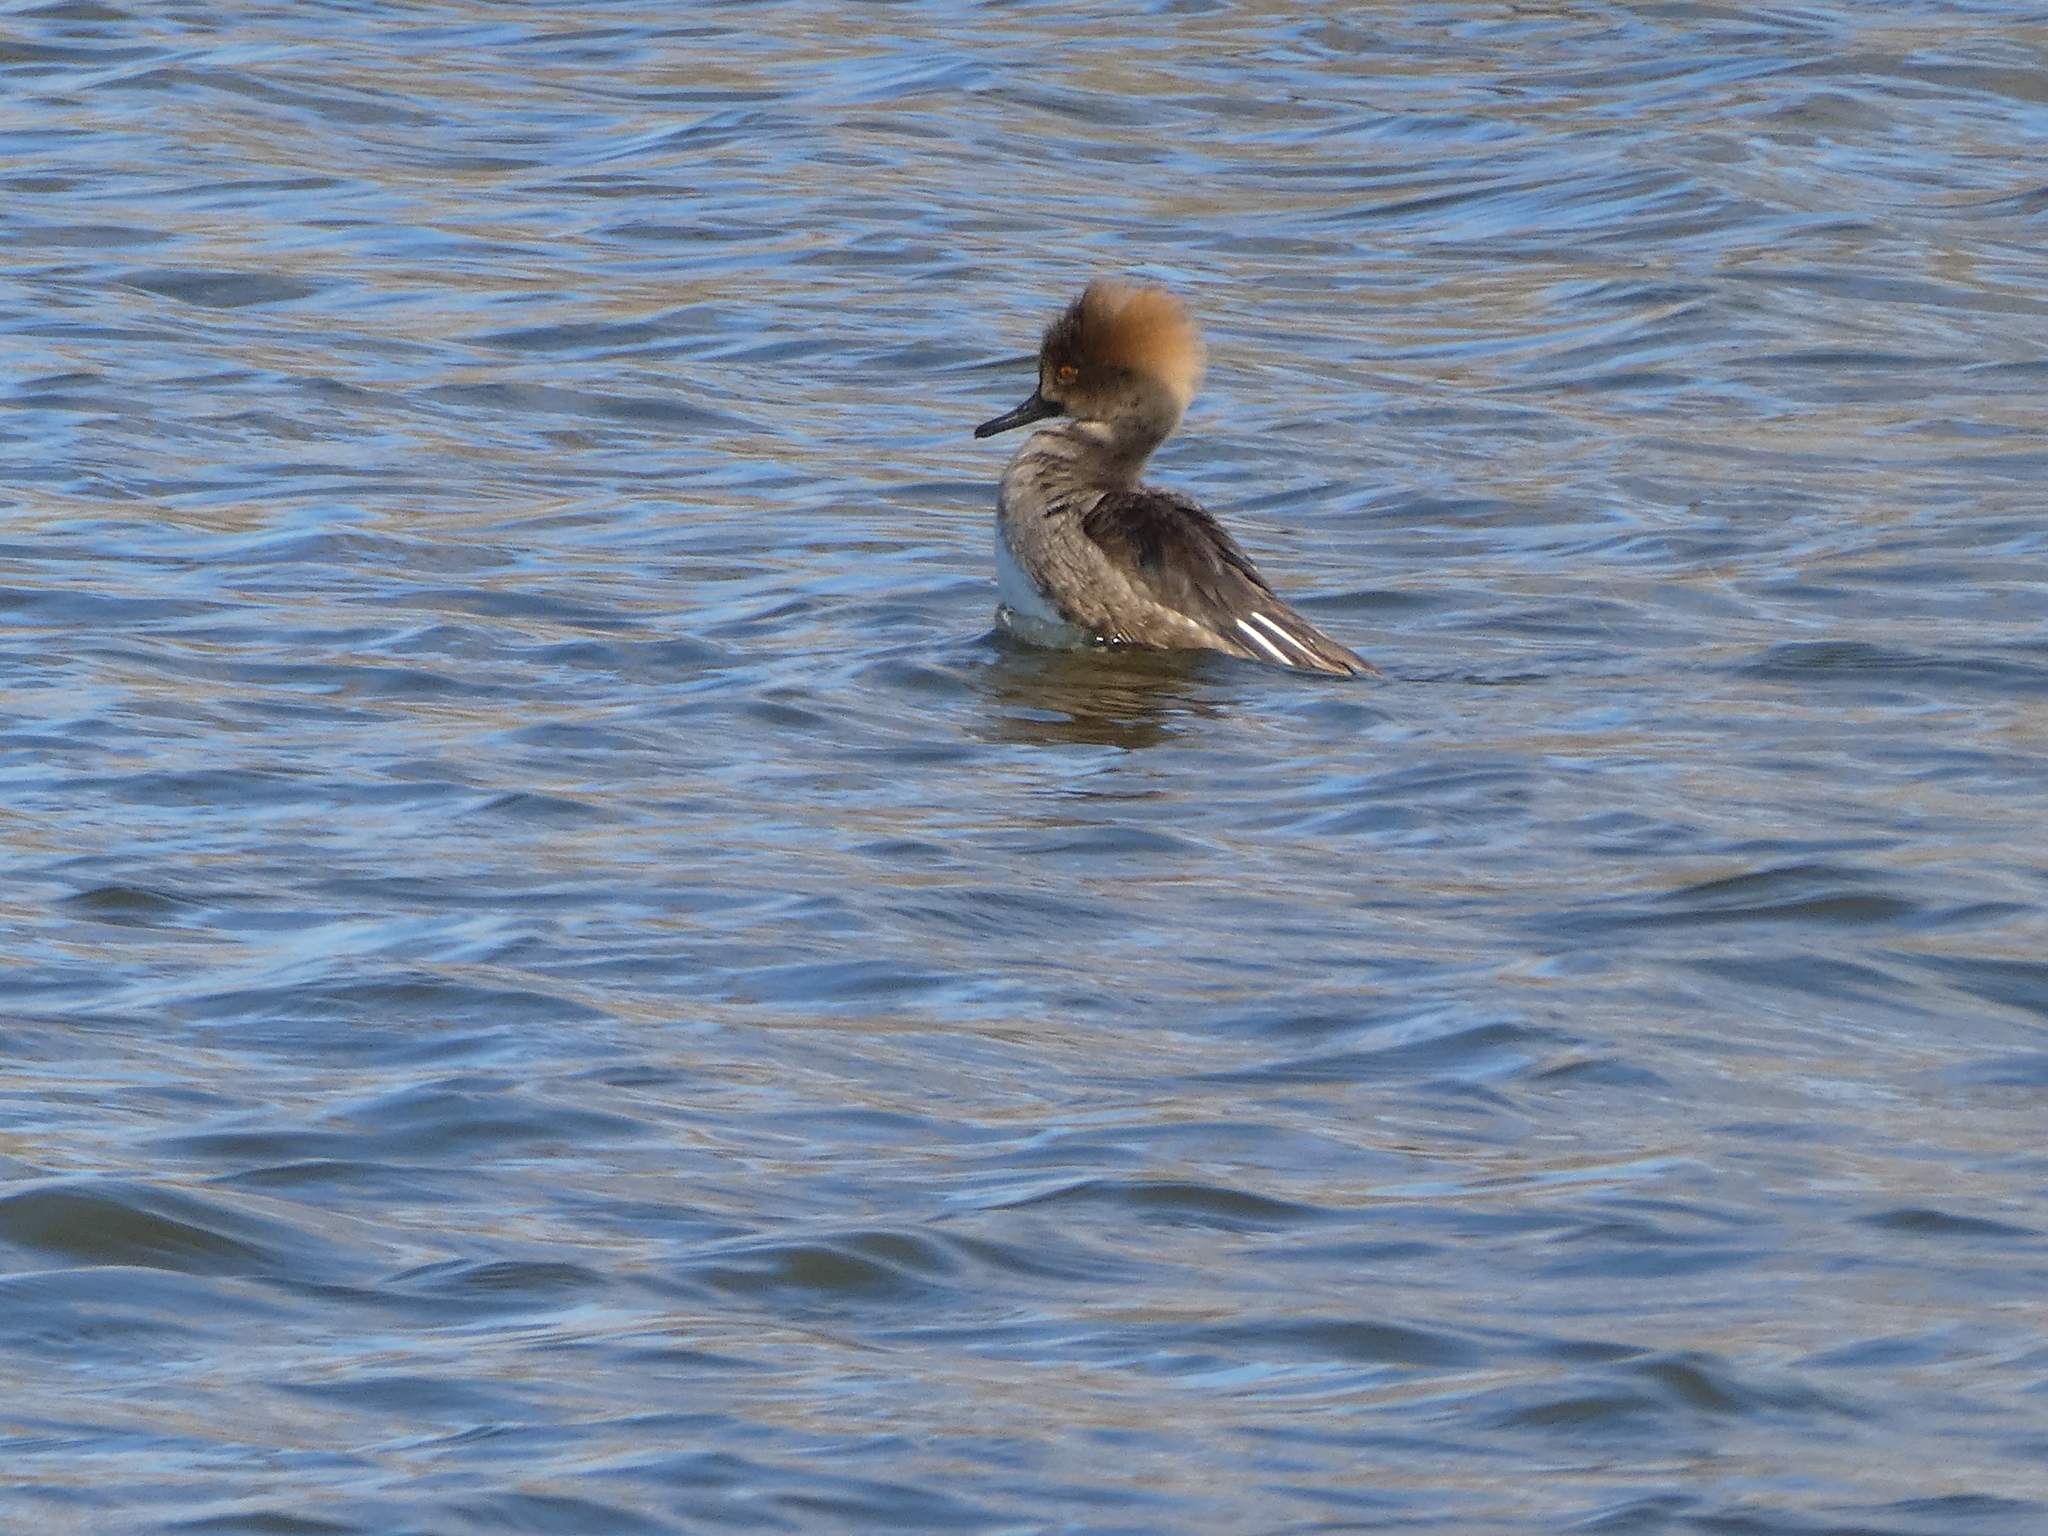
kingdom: Animalia
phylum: Chordata
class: Aves
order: Anseriformes
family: Anatidae
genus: Lophodytes
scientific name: Lophodytes cucullatus
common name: Hooded merganser
